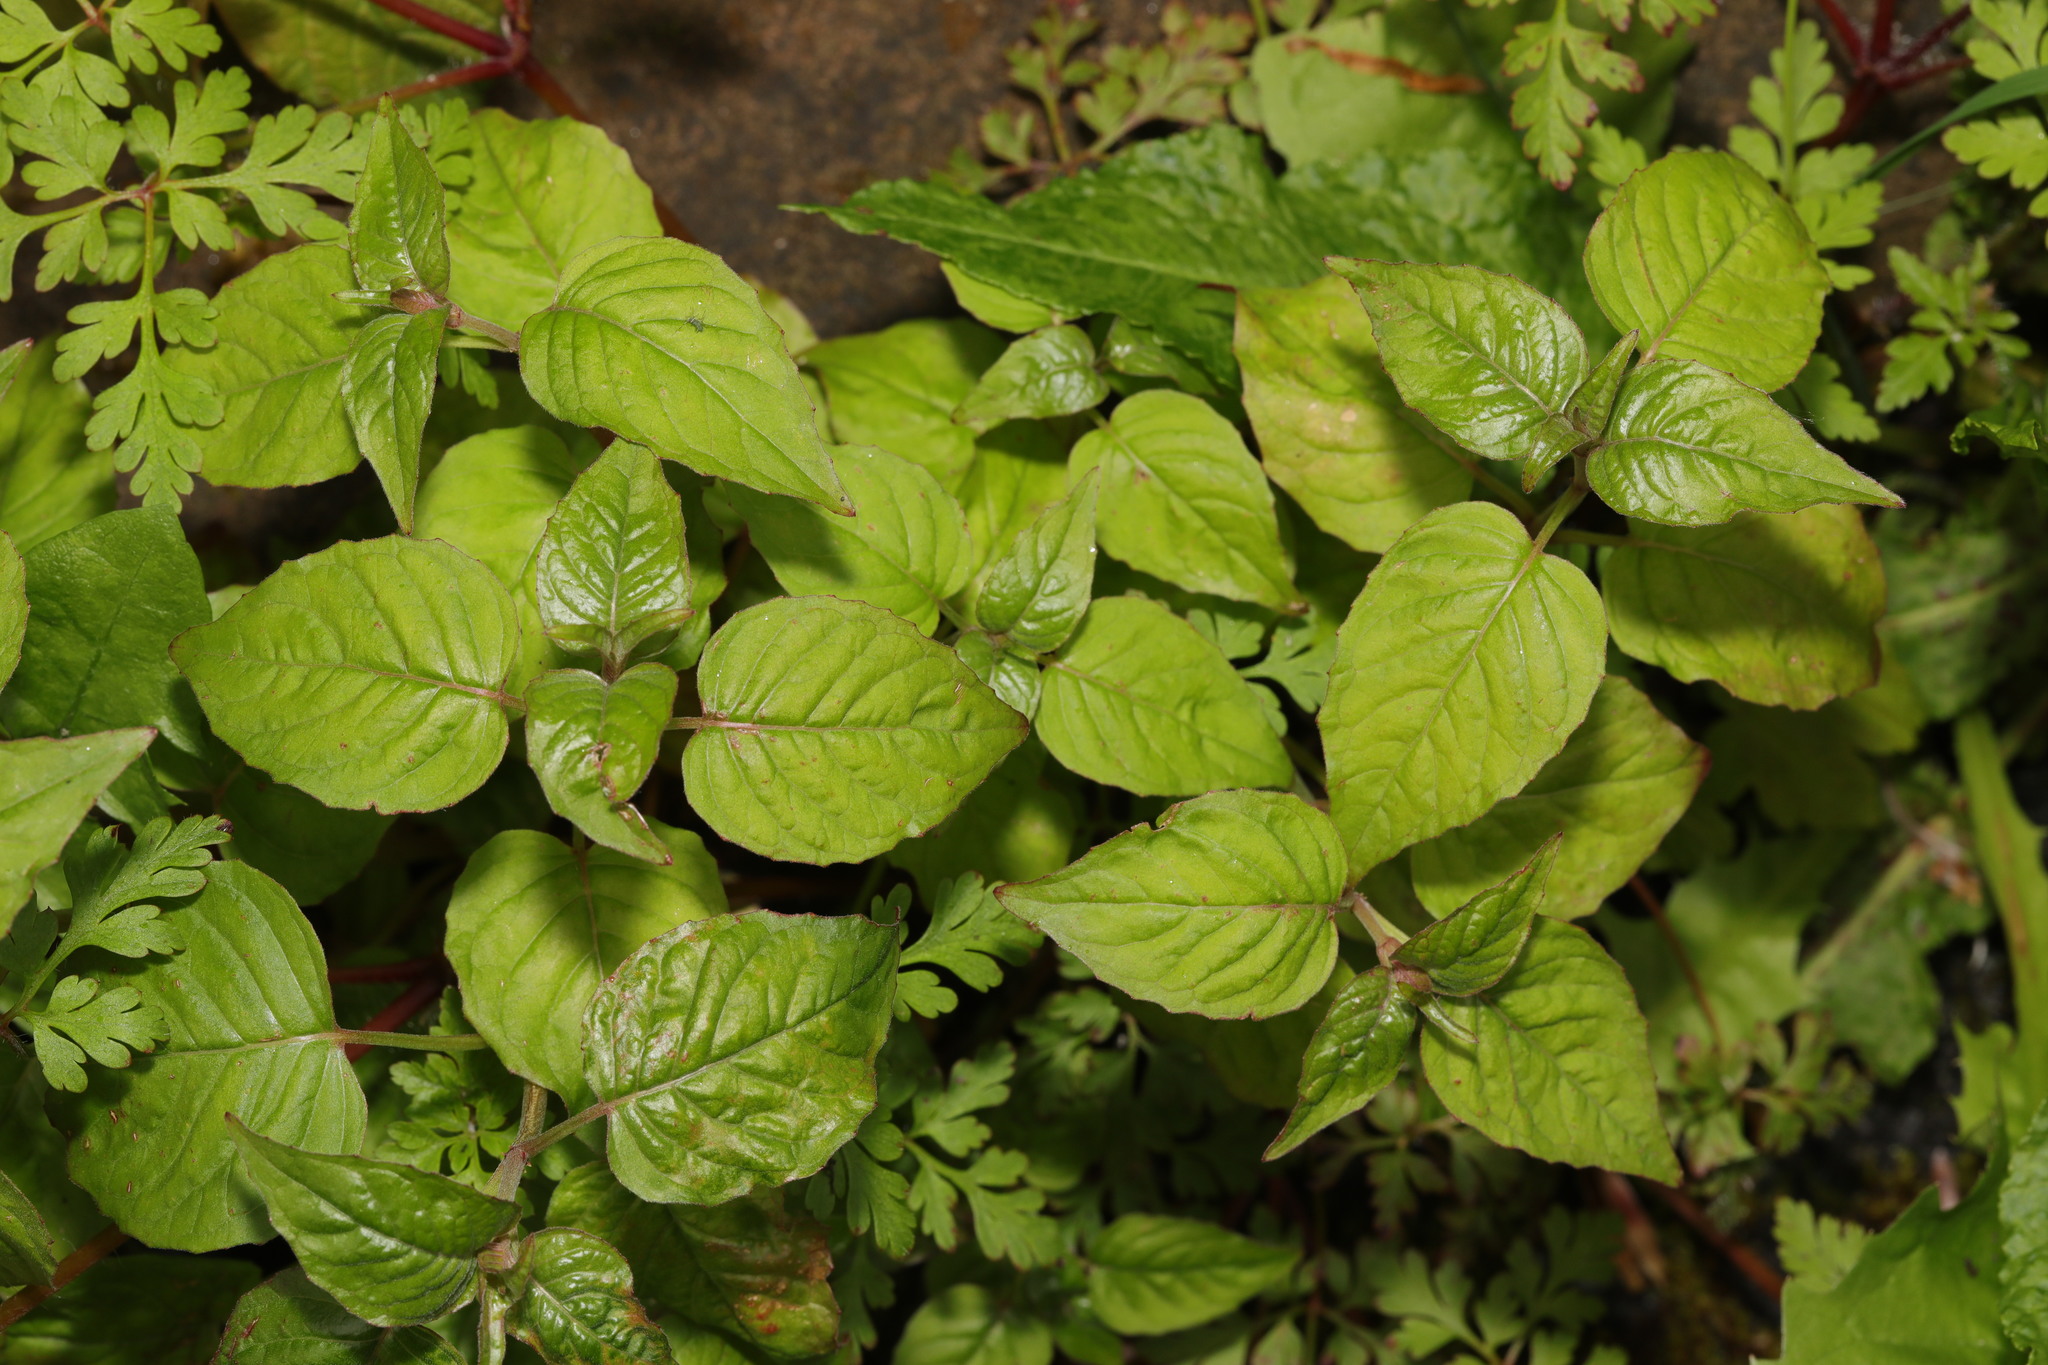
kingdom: Plantae
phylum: Tracheophyta
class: Magnoliopsida
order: Myrtales
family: Onagraceae
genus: Circaea
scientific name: Circaea lutetiana
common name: Enchanter's-nightshade
